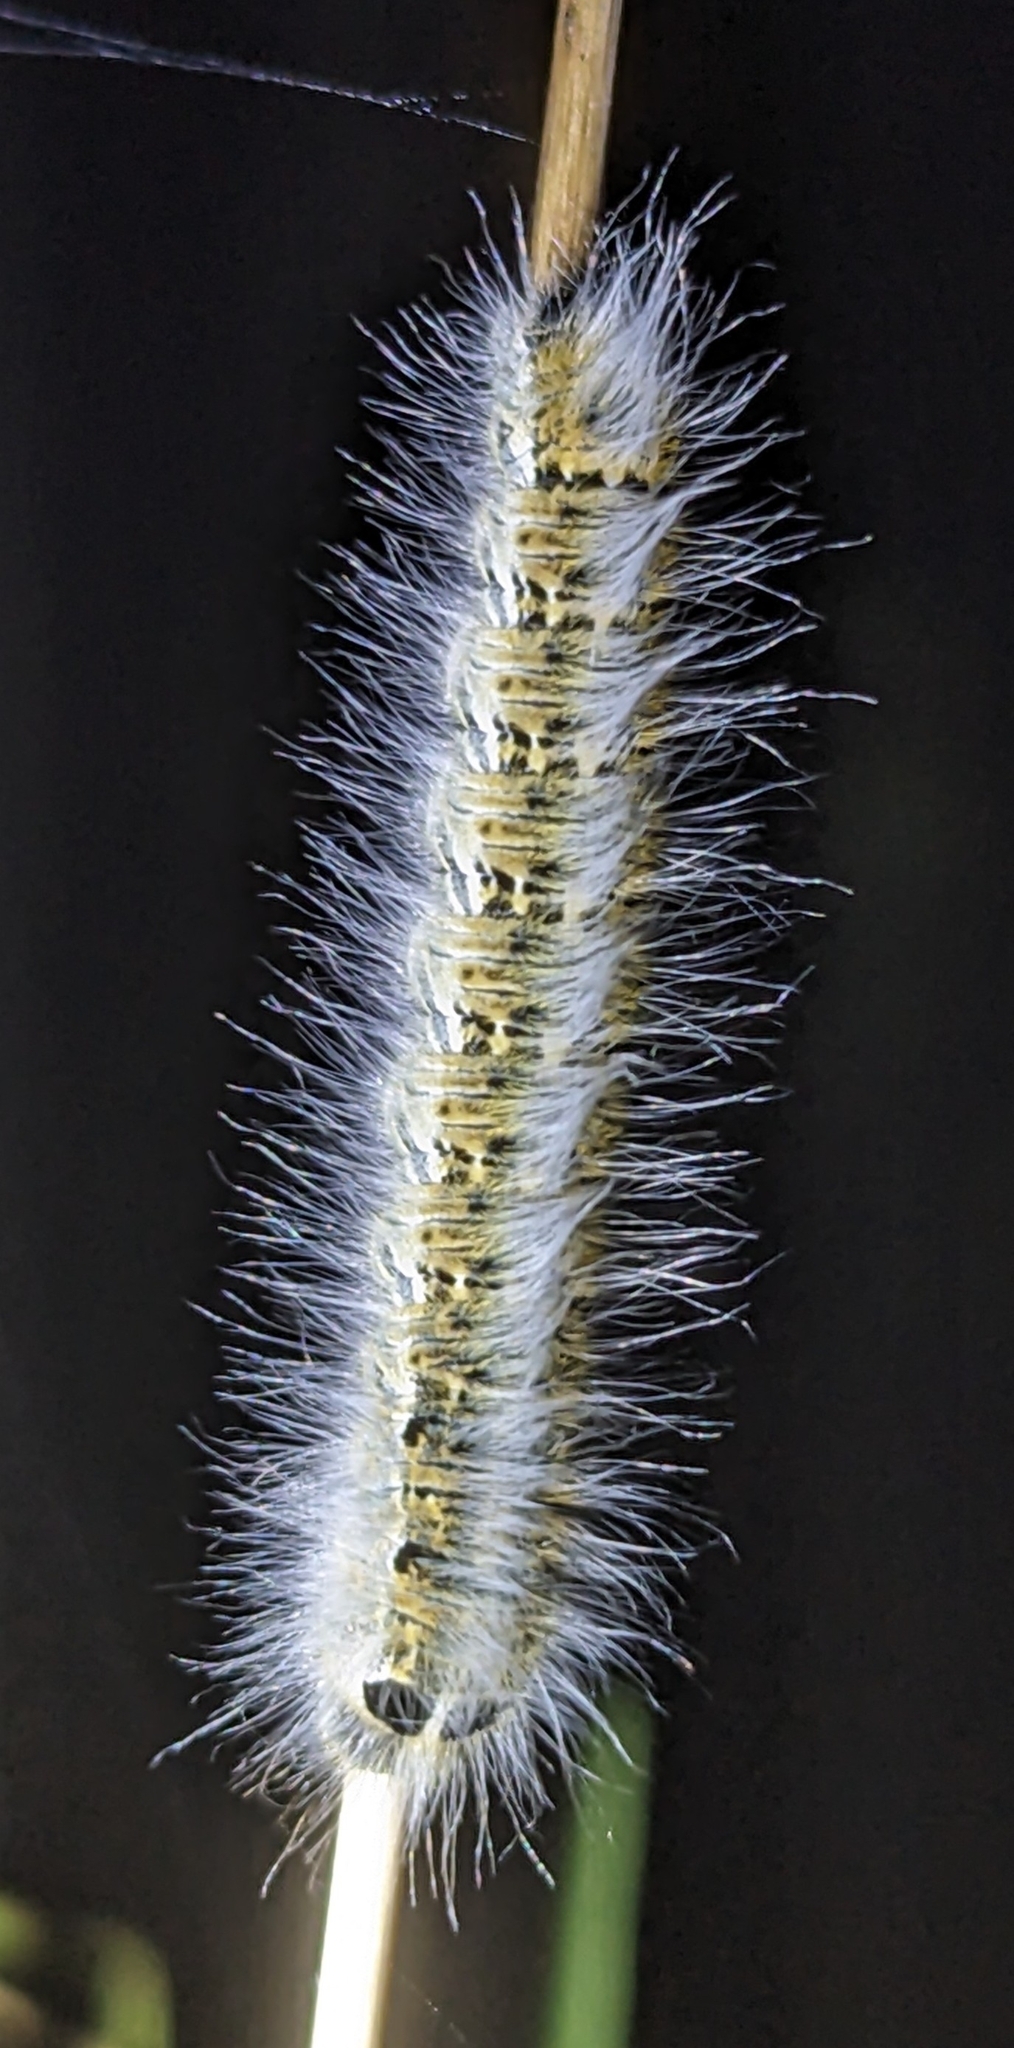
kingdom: Animalia
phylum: Arthropoda
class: Insecta
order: Lepidoptera
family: Lasiocampidae
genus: Lasiocampa
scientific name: Lasiocampa terreni
